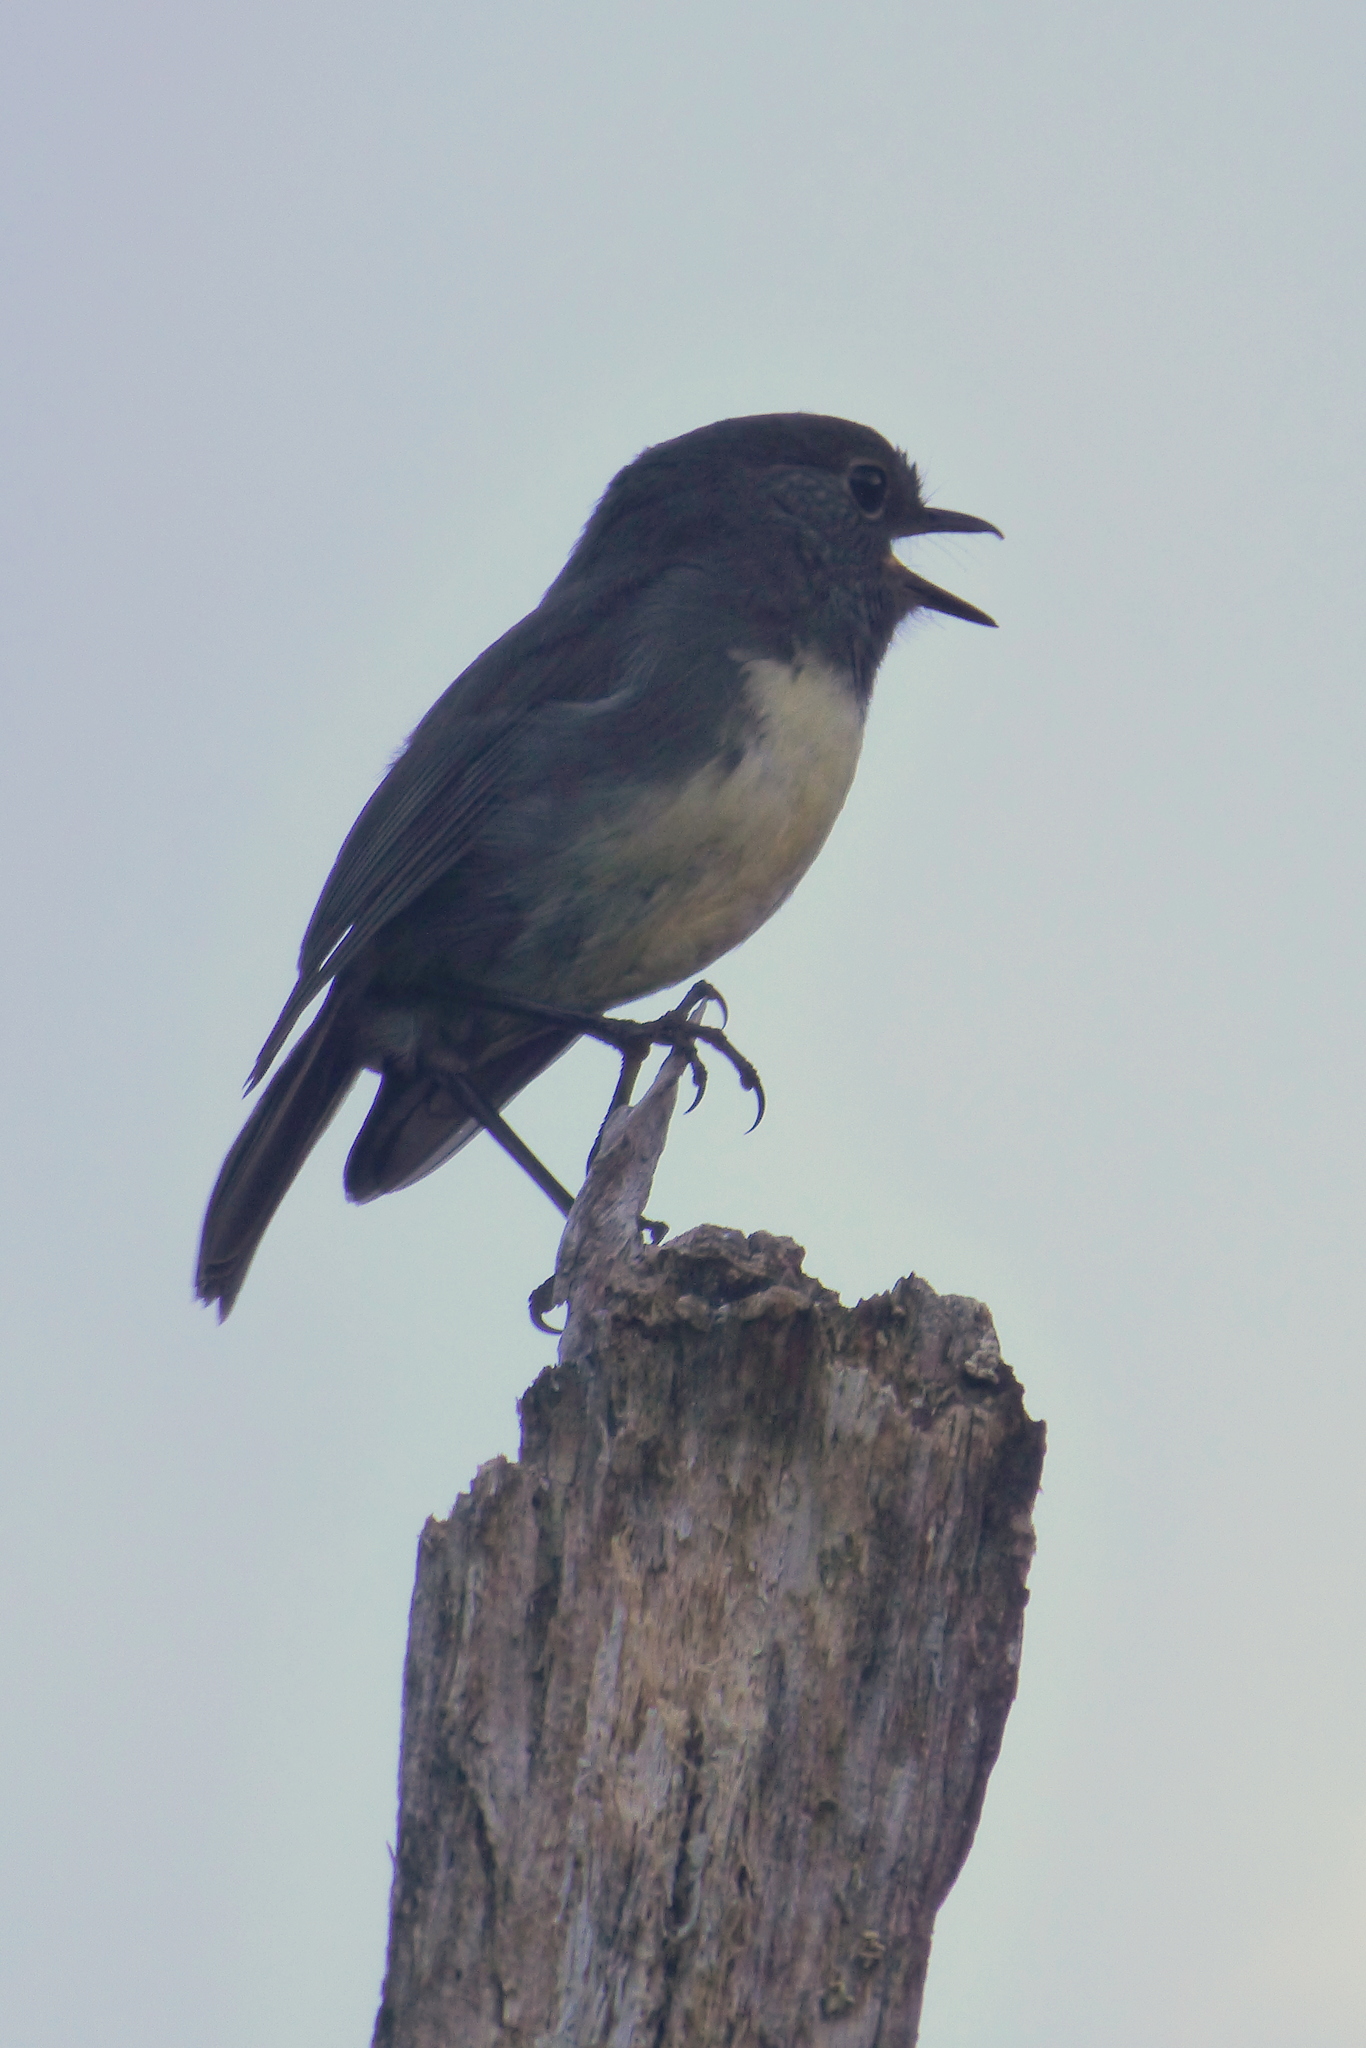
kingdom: Animalia
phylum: Chordata
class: Aves
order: Passeriformes
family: Petroicidae
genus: Petroica
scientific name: Petroica australis
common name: New zealand robin
